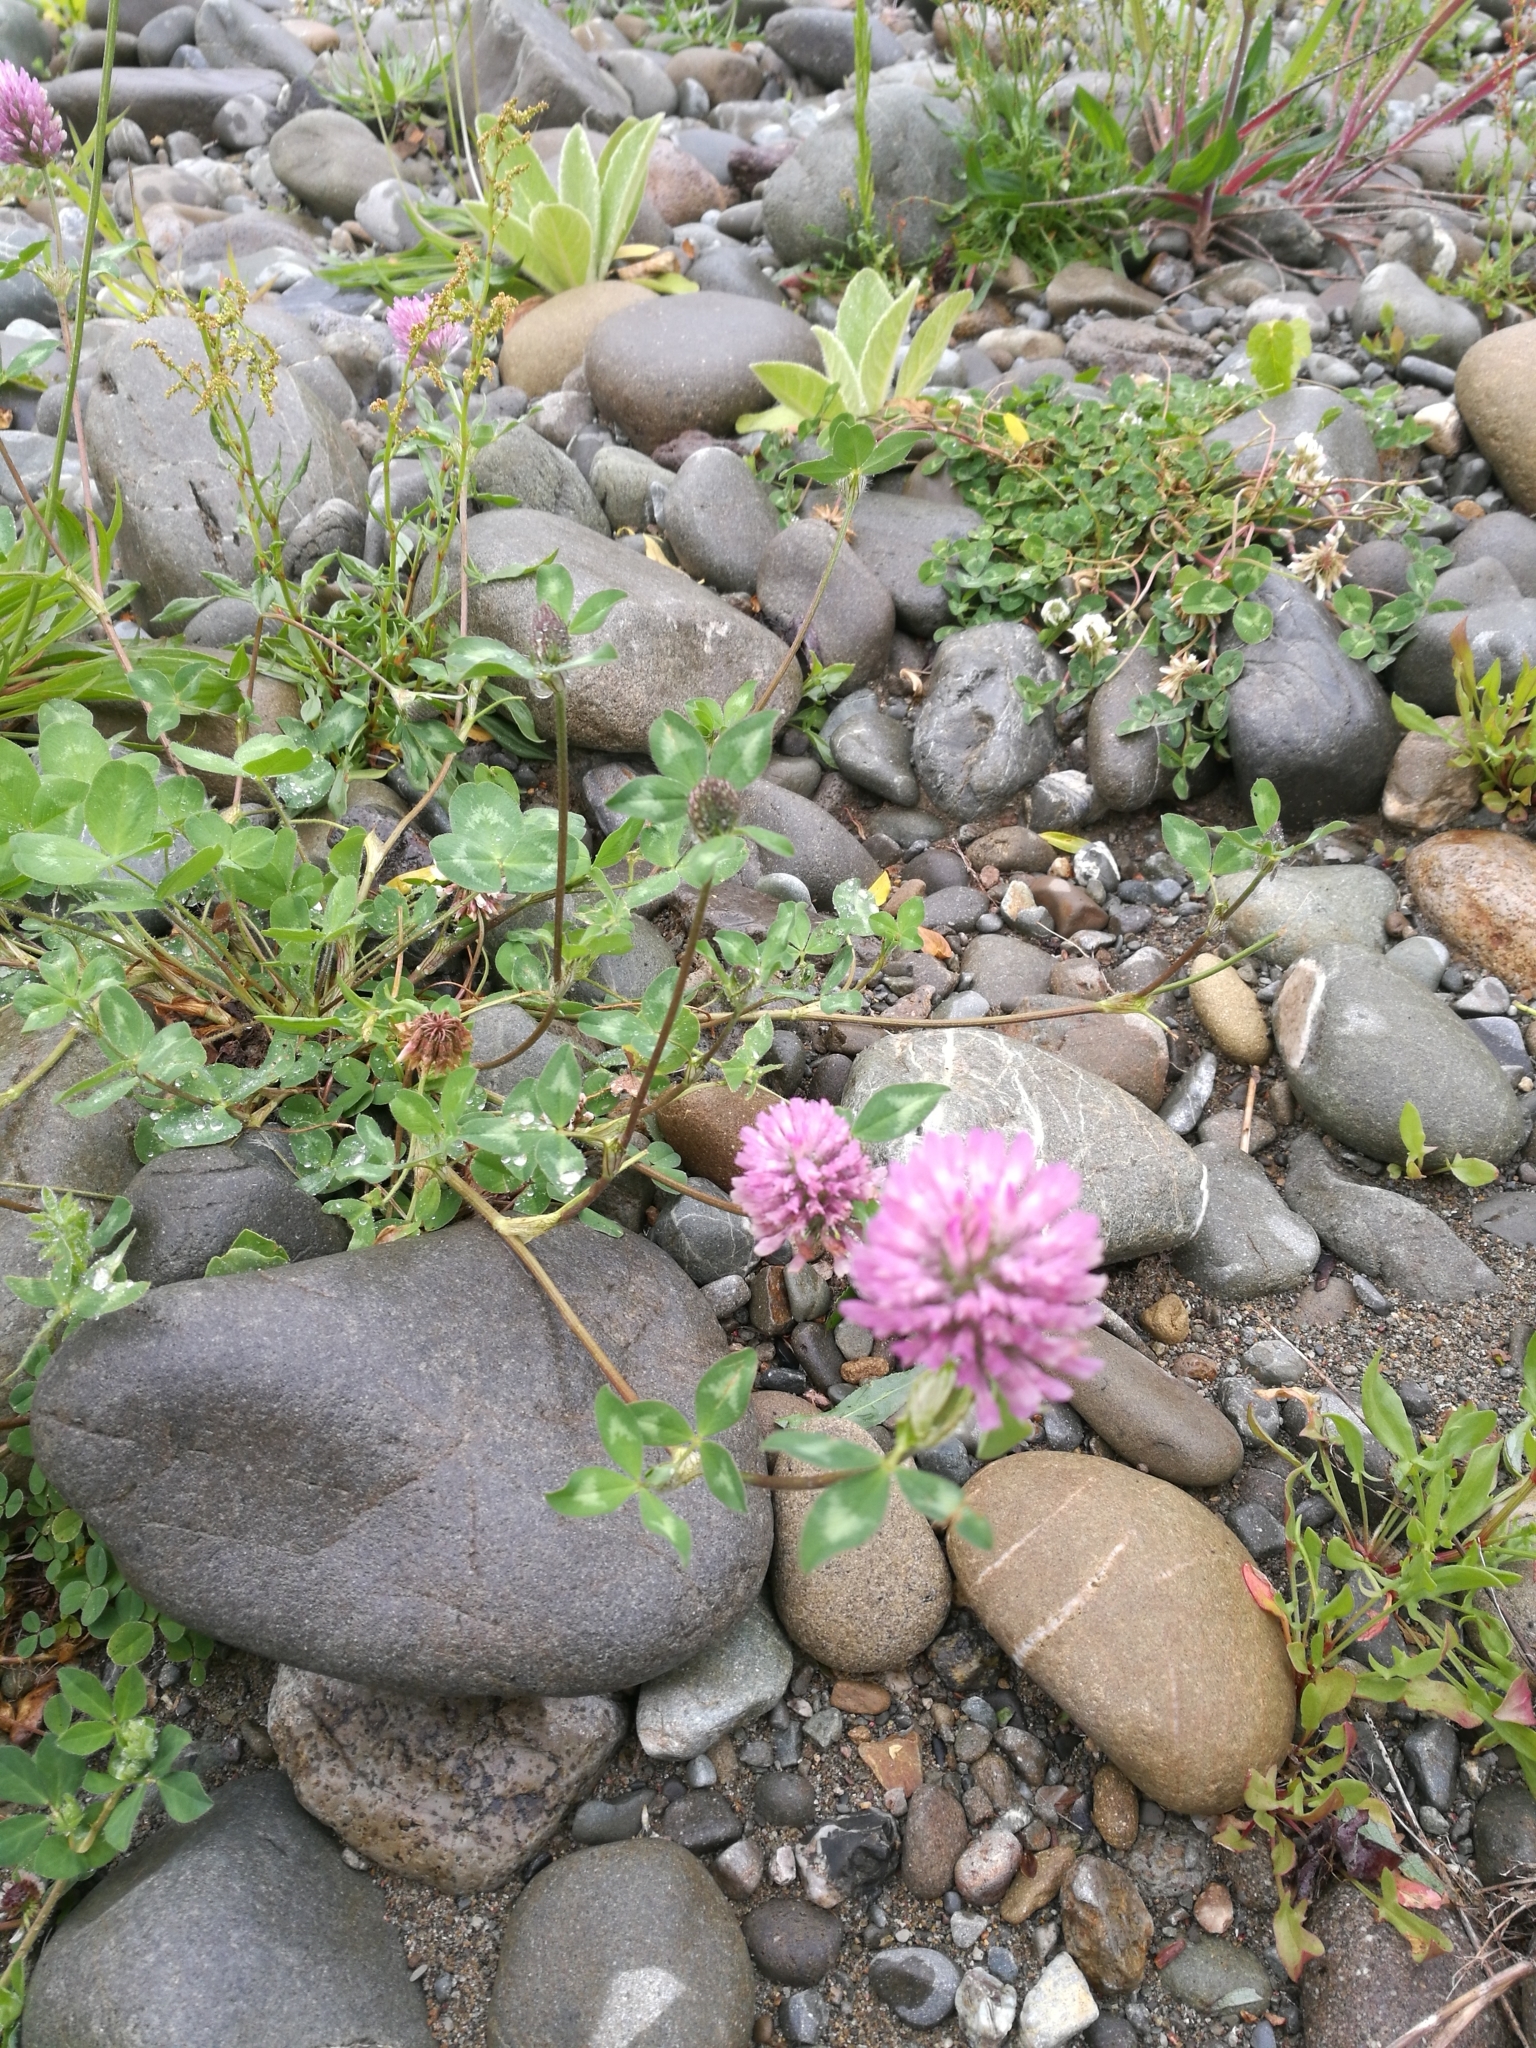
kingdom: Plantae
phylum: Tracheophyta
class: Magnoliopsida
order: Fabales
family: Fabaceae
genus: Trifolium
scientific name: Trifolium pratense
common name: Red clover
